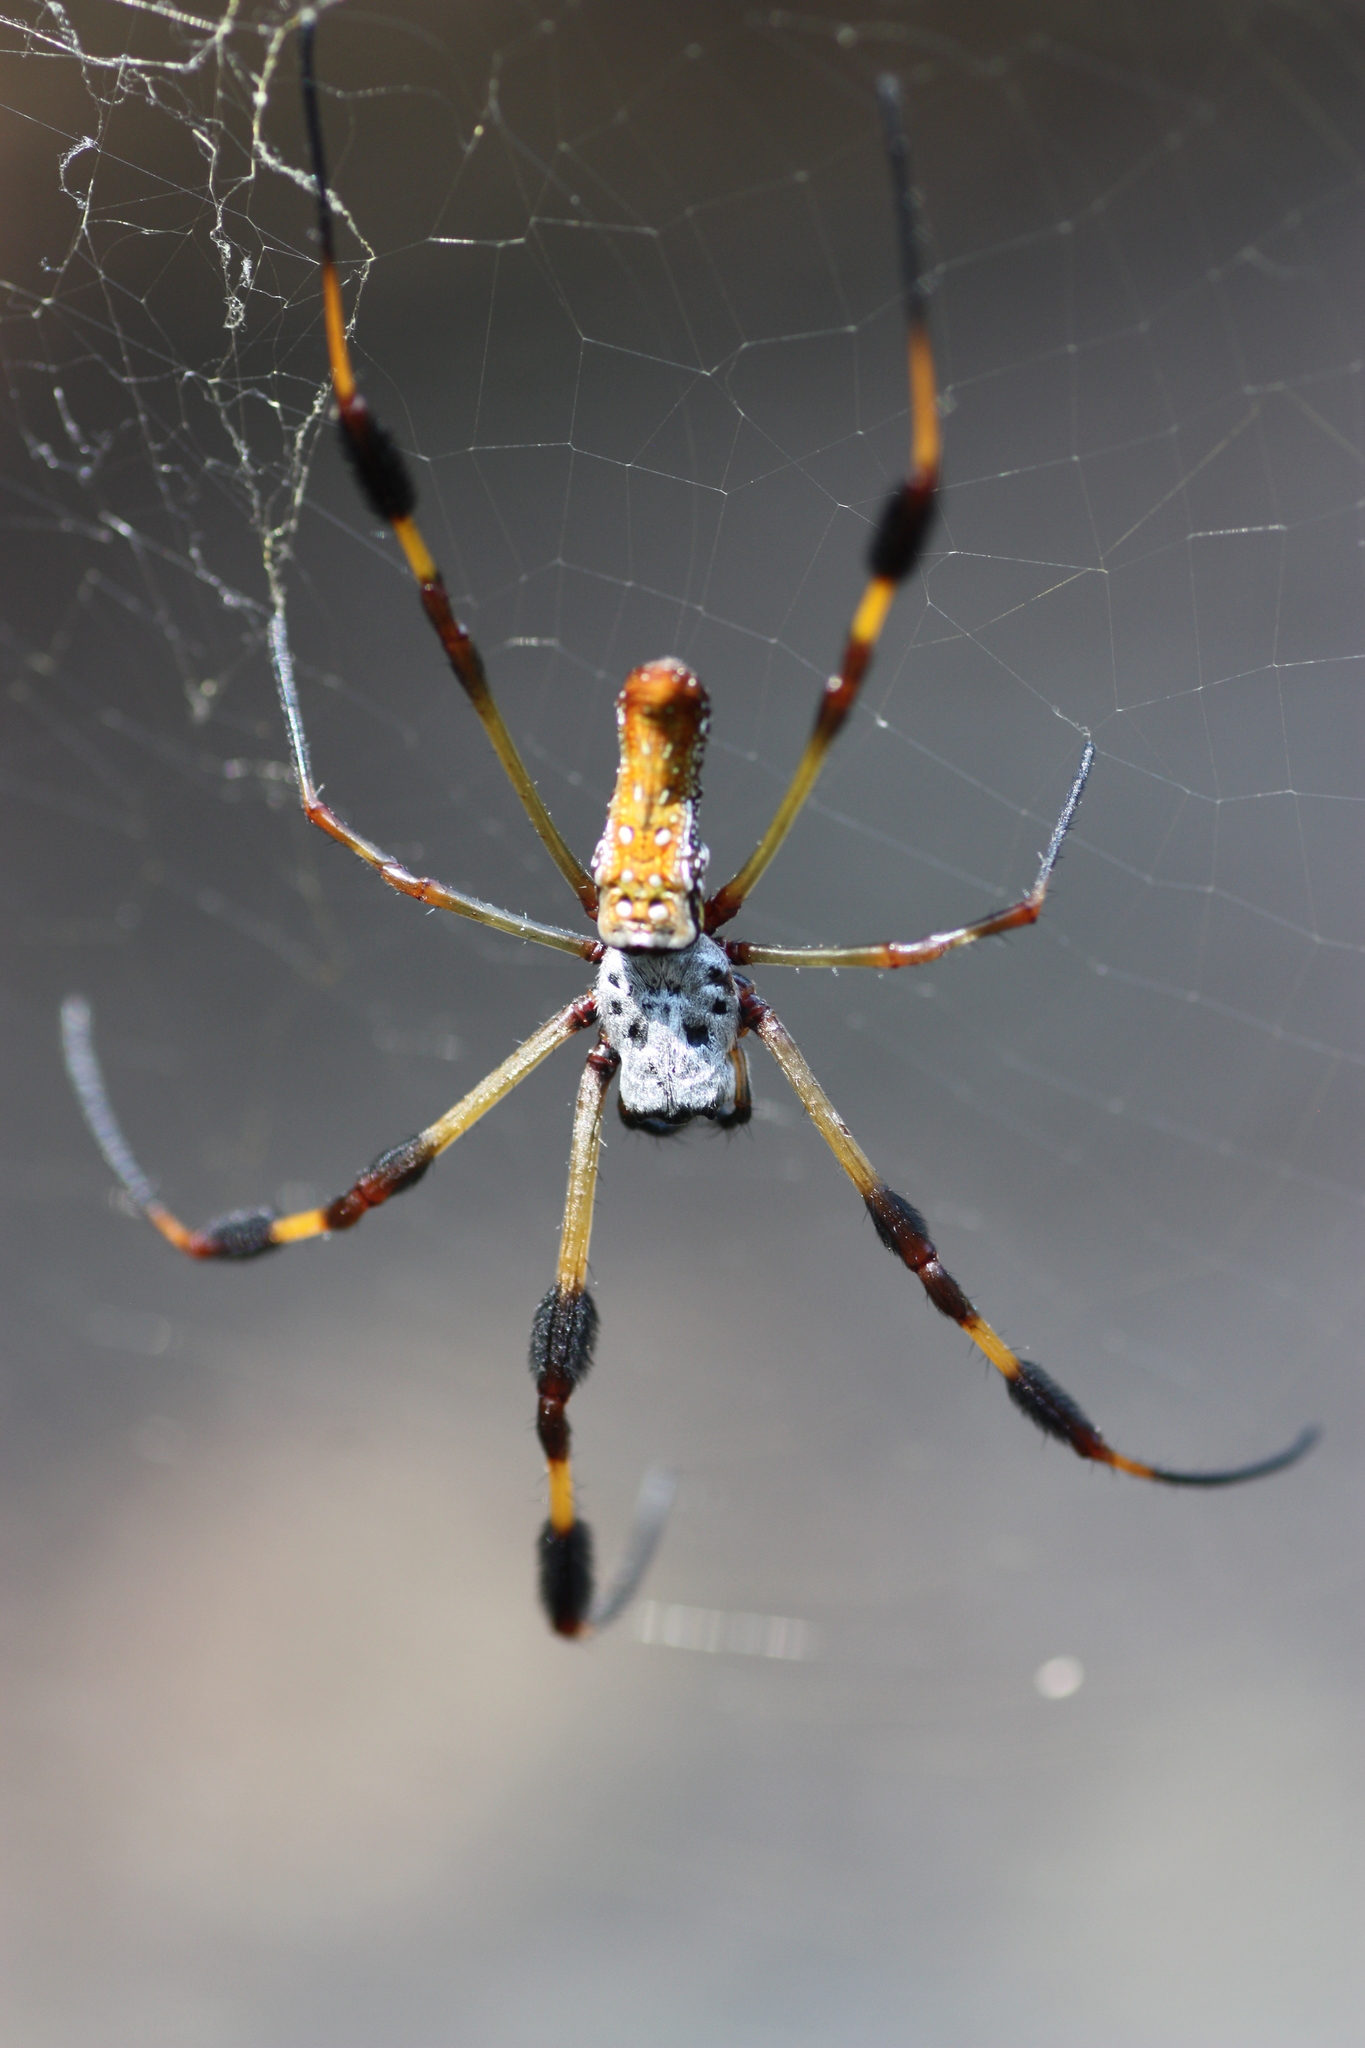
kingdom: Animalia
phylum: Arthropoda
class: Arachnida
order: Araneae
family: Araneidae
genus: Trichonephila
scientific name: Trichonephila clavipes
